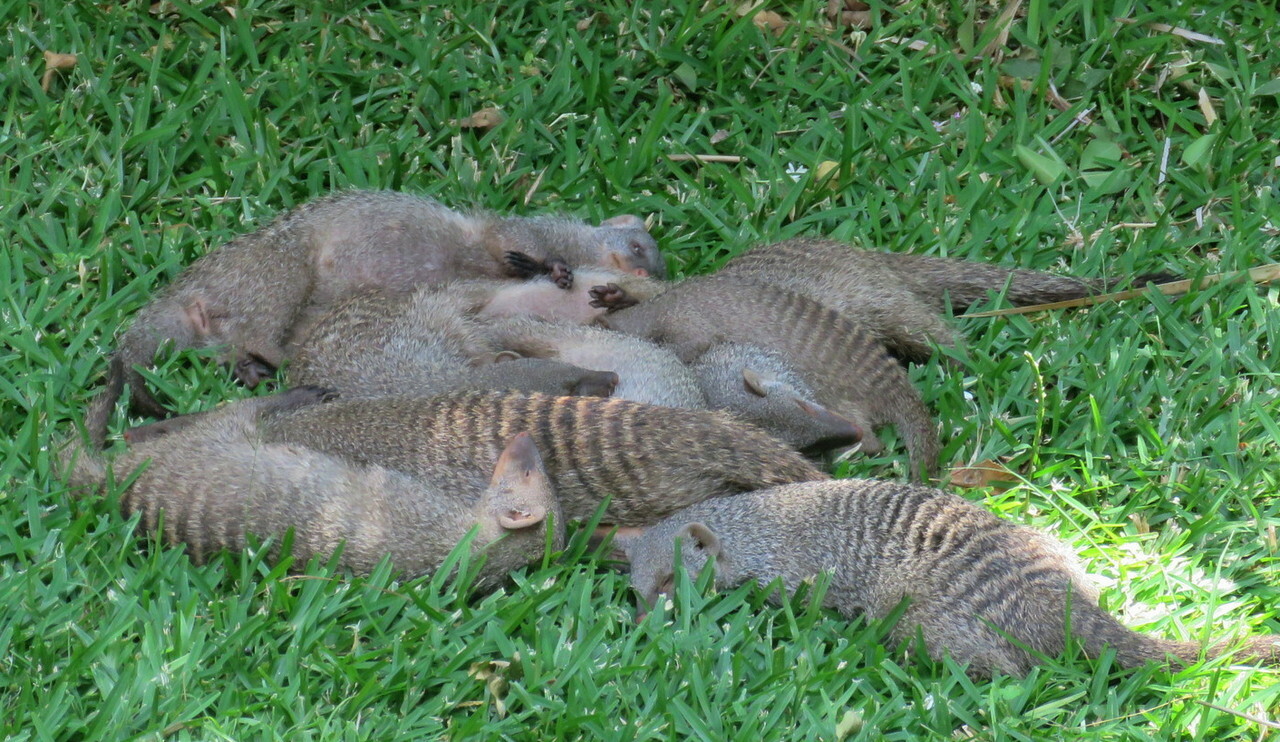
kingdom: Animalia
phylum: Chordata
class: Mammalia
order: Carnivora
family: Herpestidae
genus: Mungos
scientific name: Mungos mungo
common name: Banded mongoose
